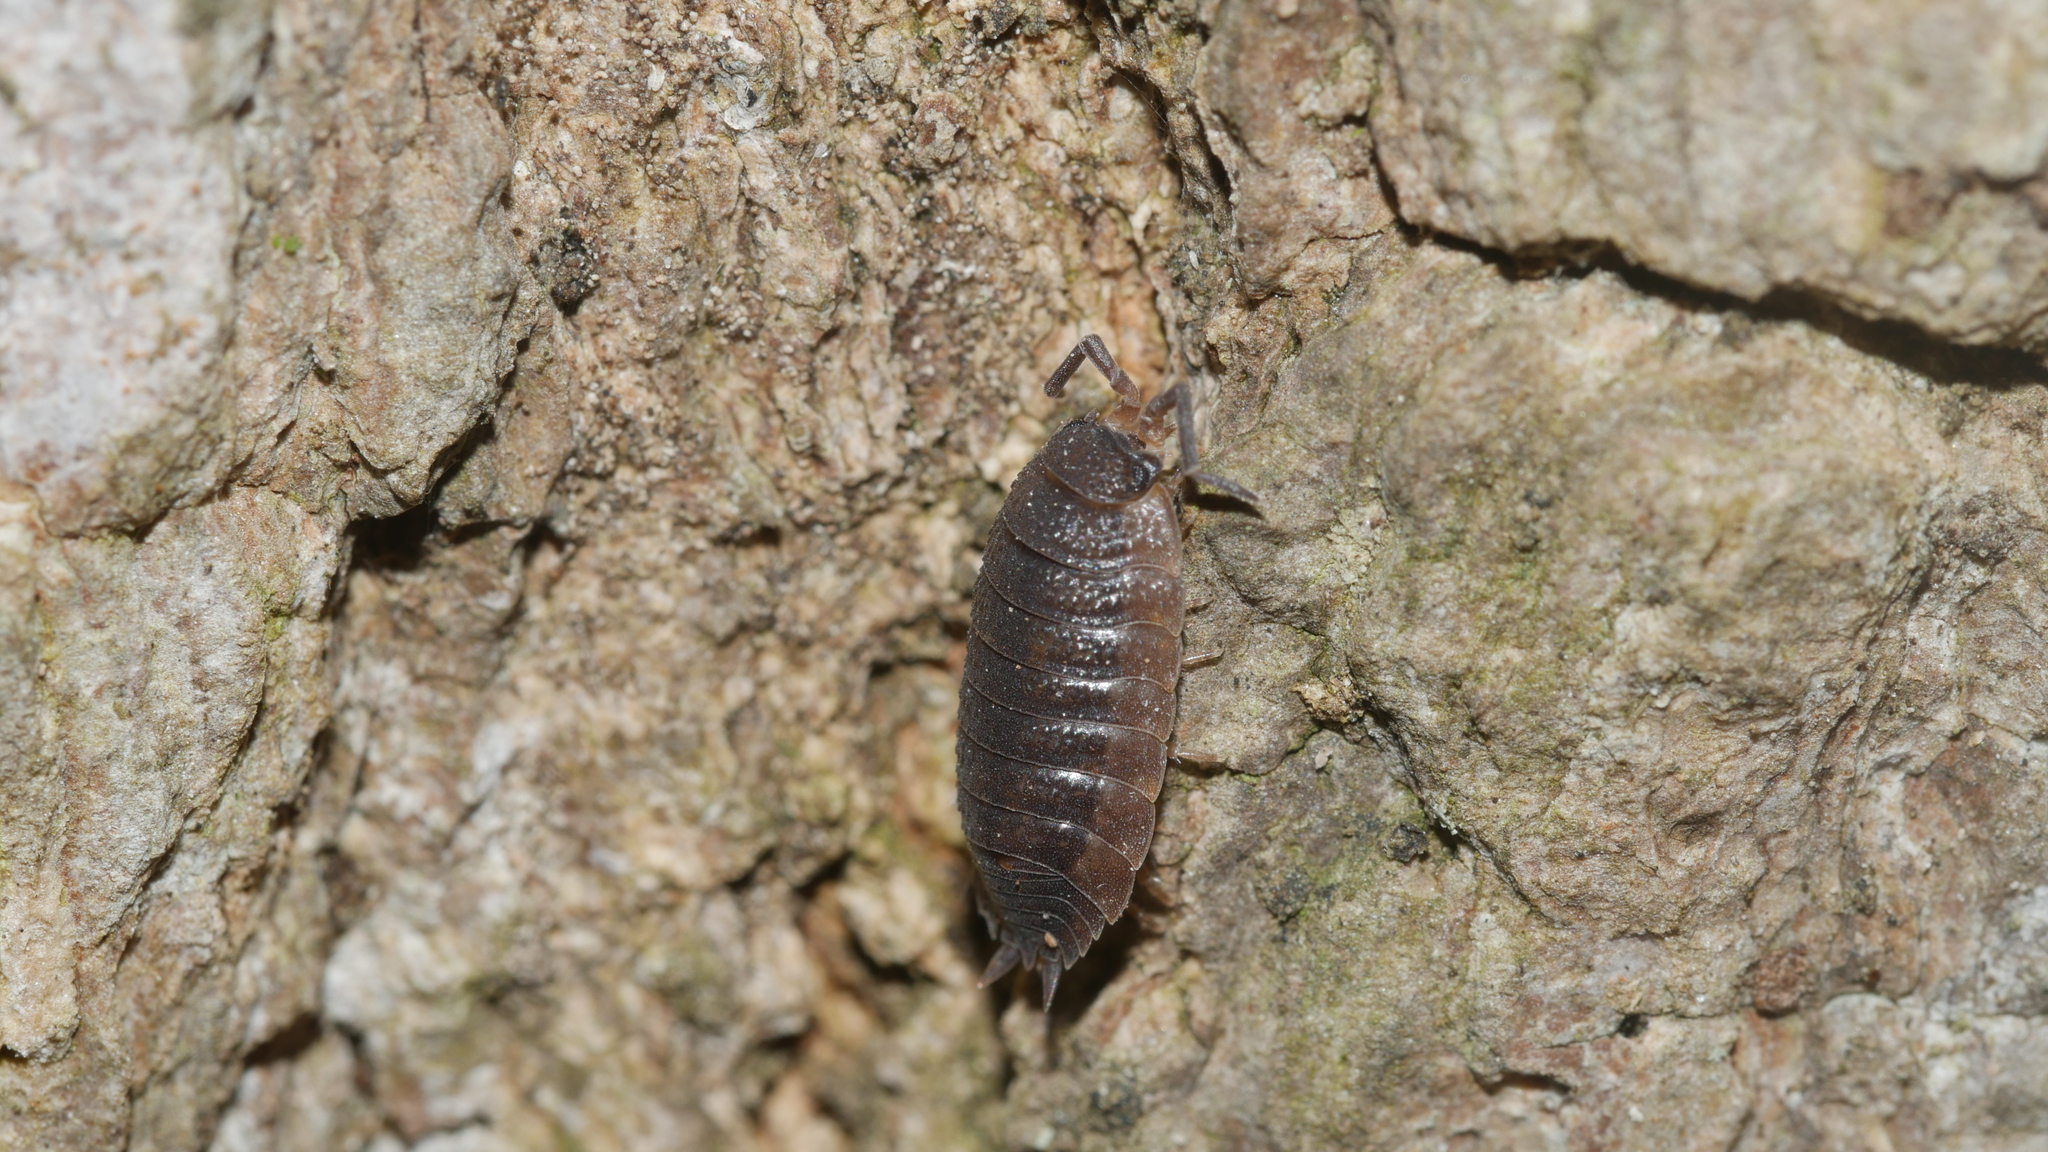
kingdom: Animalia
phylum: Arthropoda
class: Malacostraca
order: Isopoda
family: Porcellionidae
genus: Porcellio
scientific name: Porcellio scaber
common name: Common rough woodlouse
